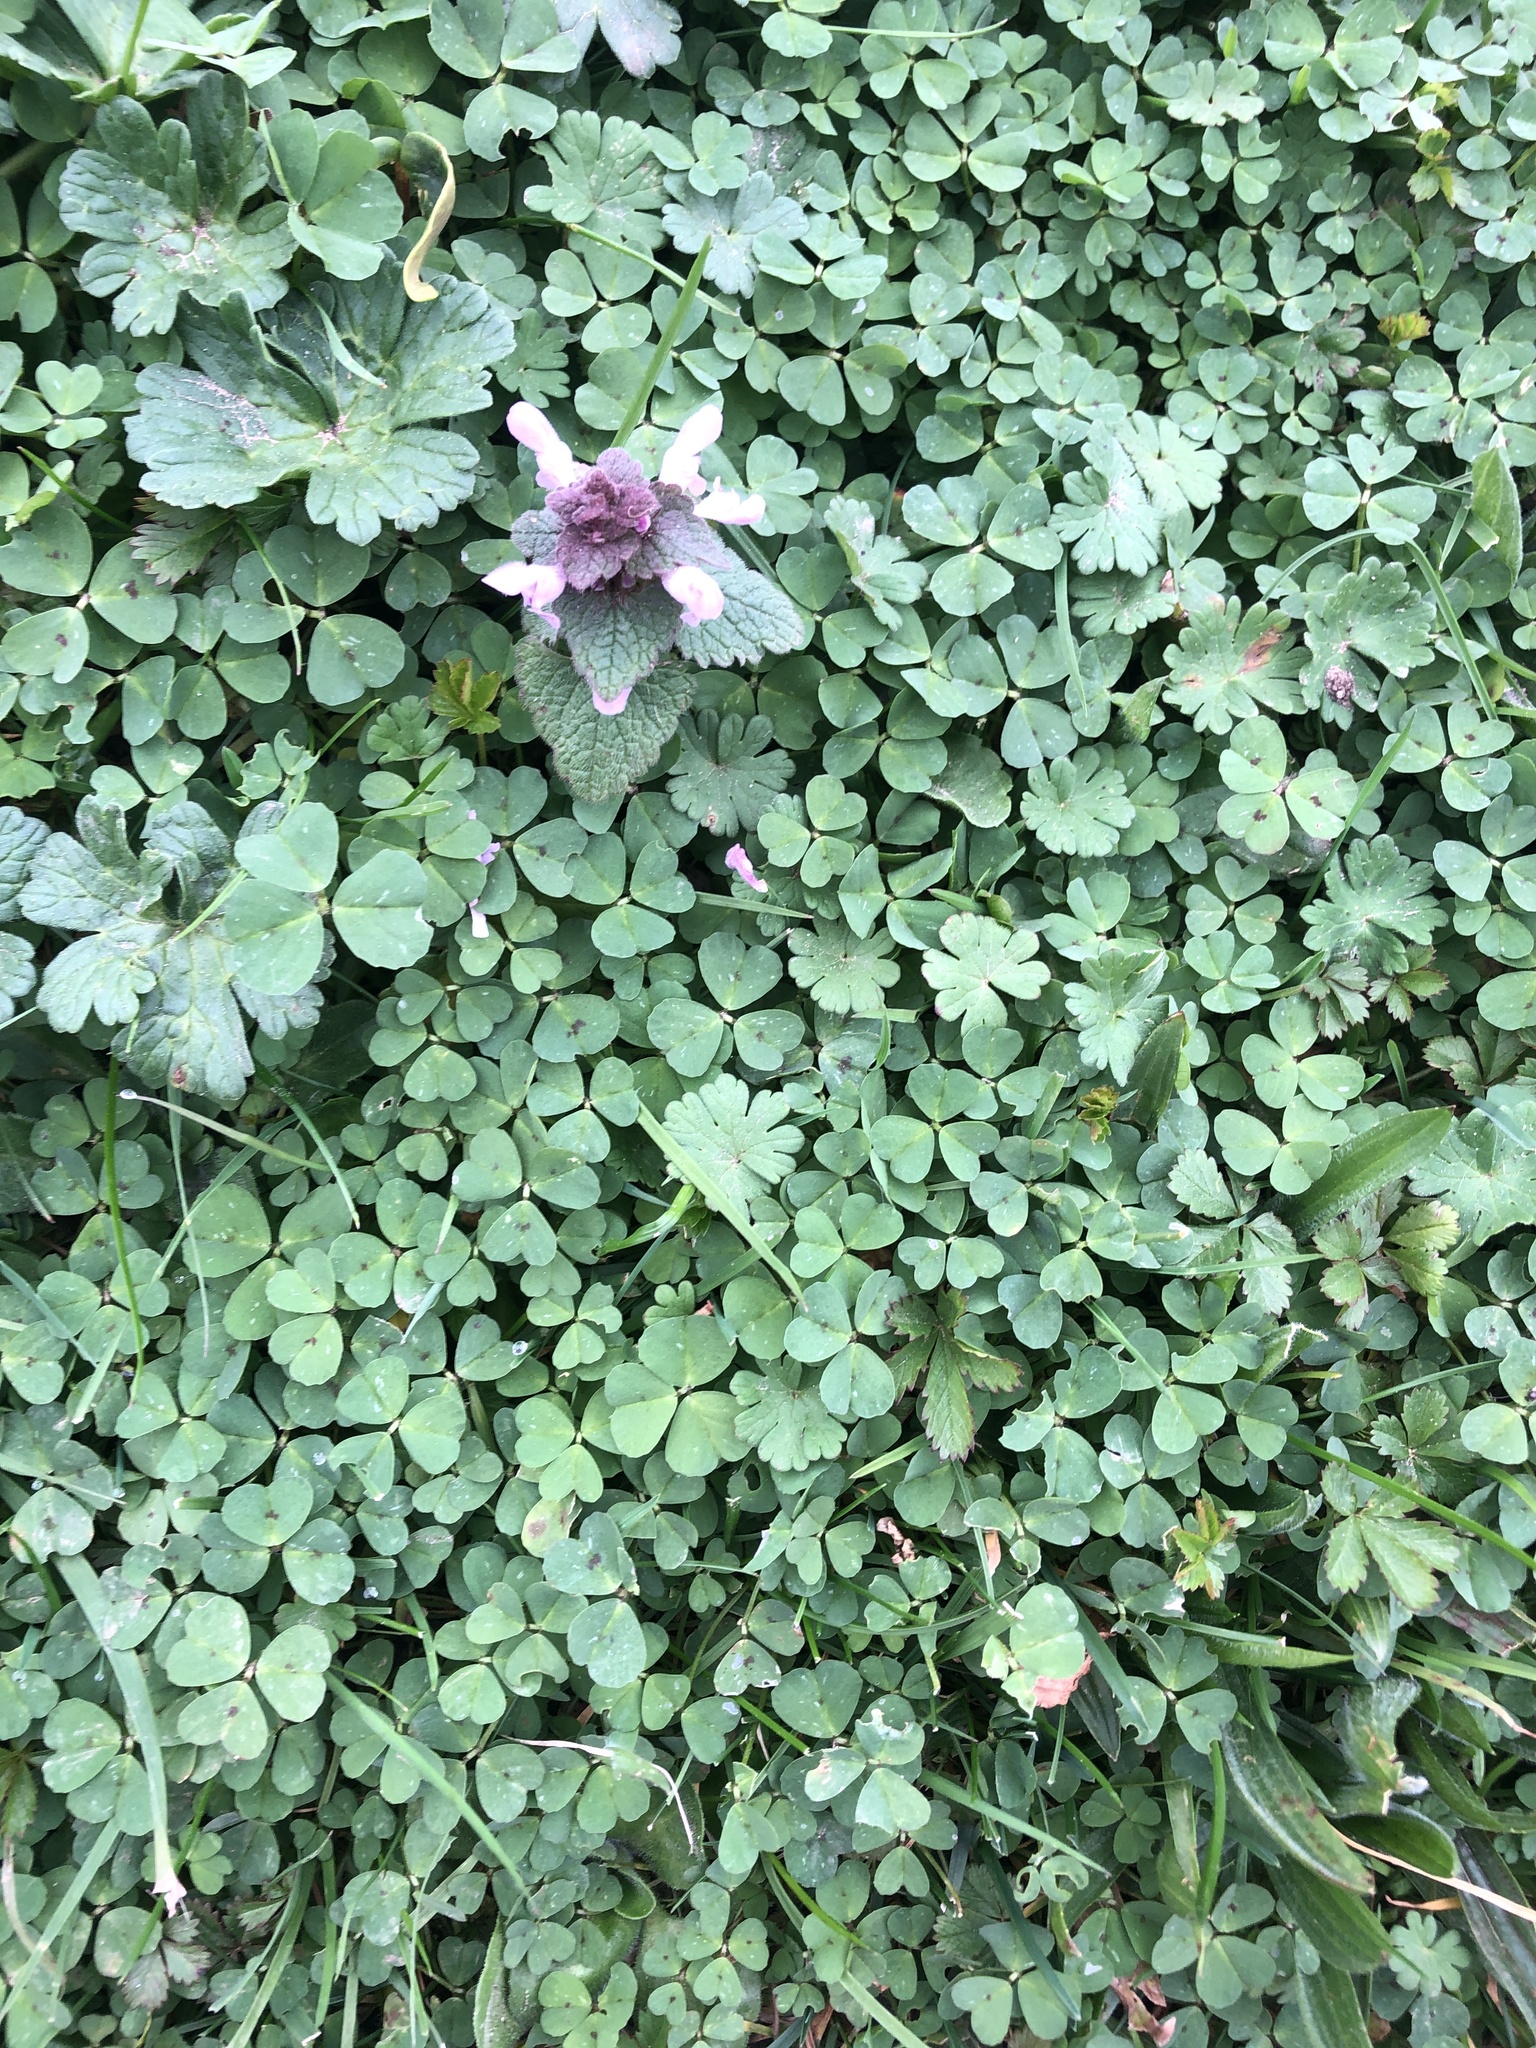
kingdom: Plantae
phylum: Tracheophyta
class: Magnoliopsida
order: Lamiales
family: Lamiaceae
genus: Lamium
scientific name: Lamium purpureum
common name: Red dead-nettle
